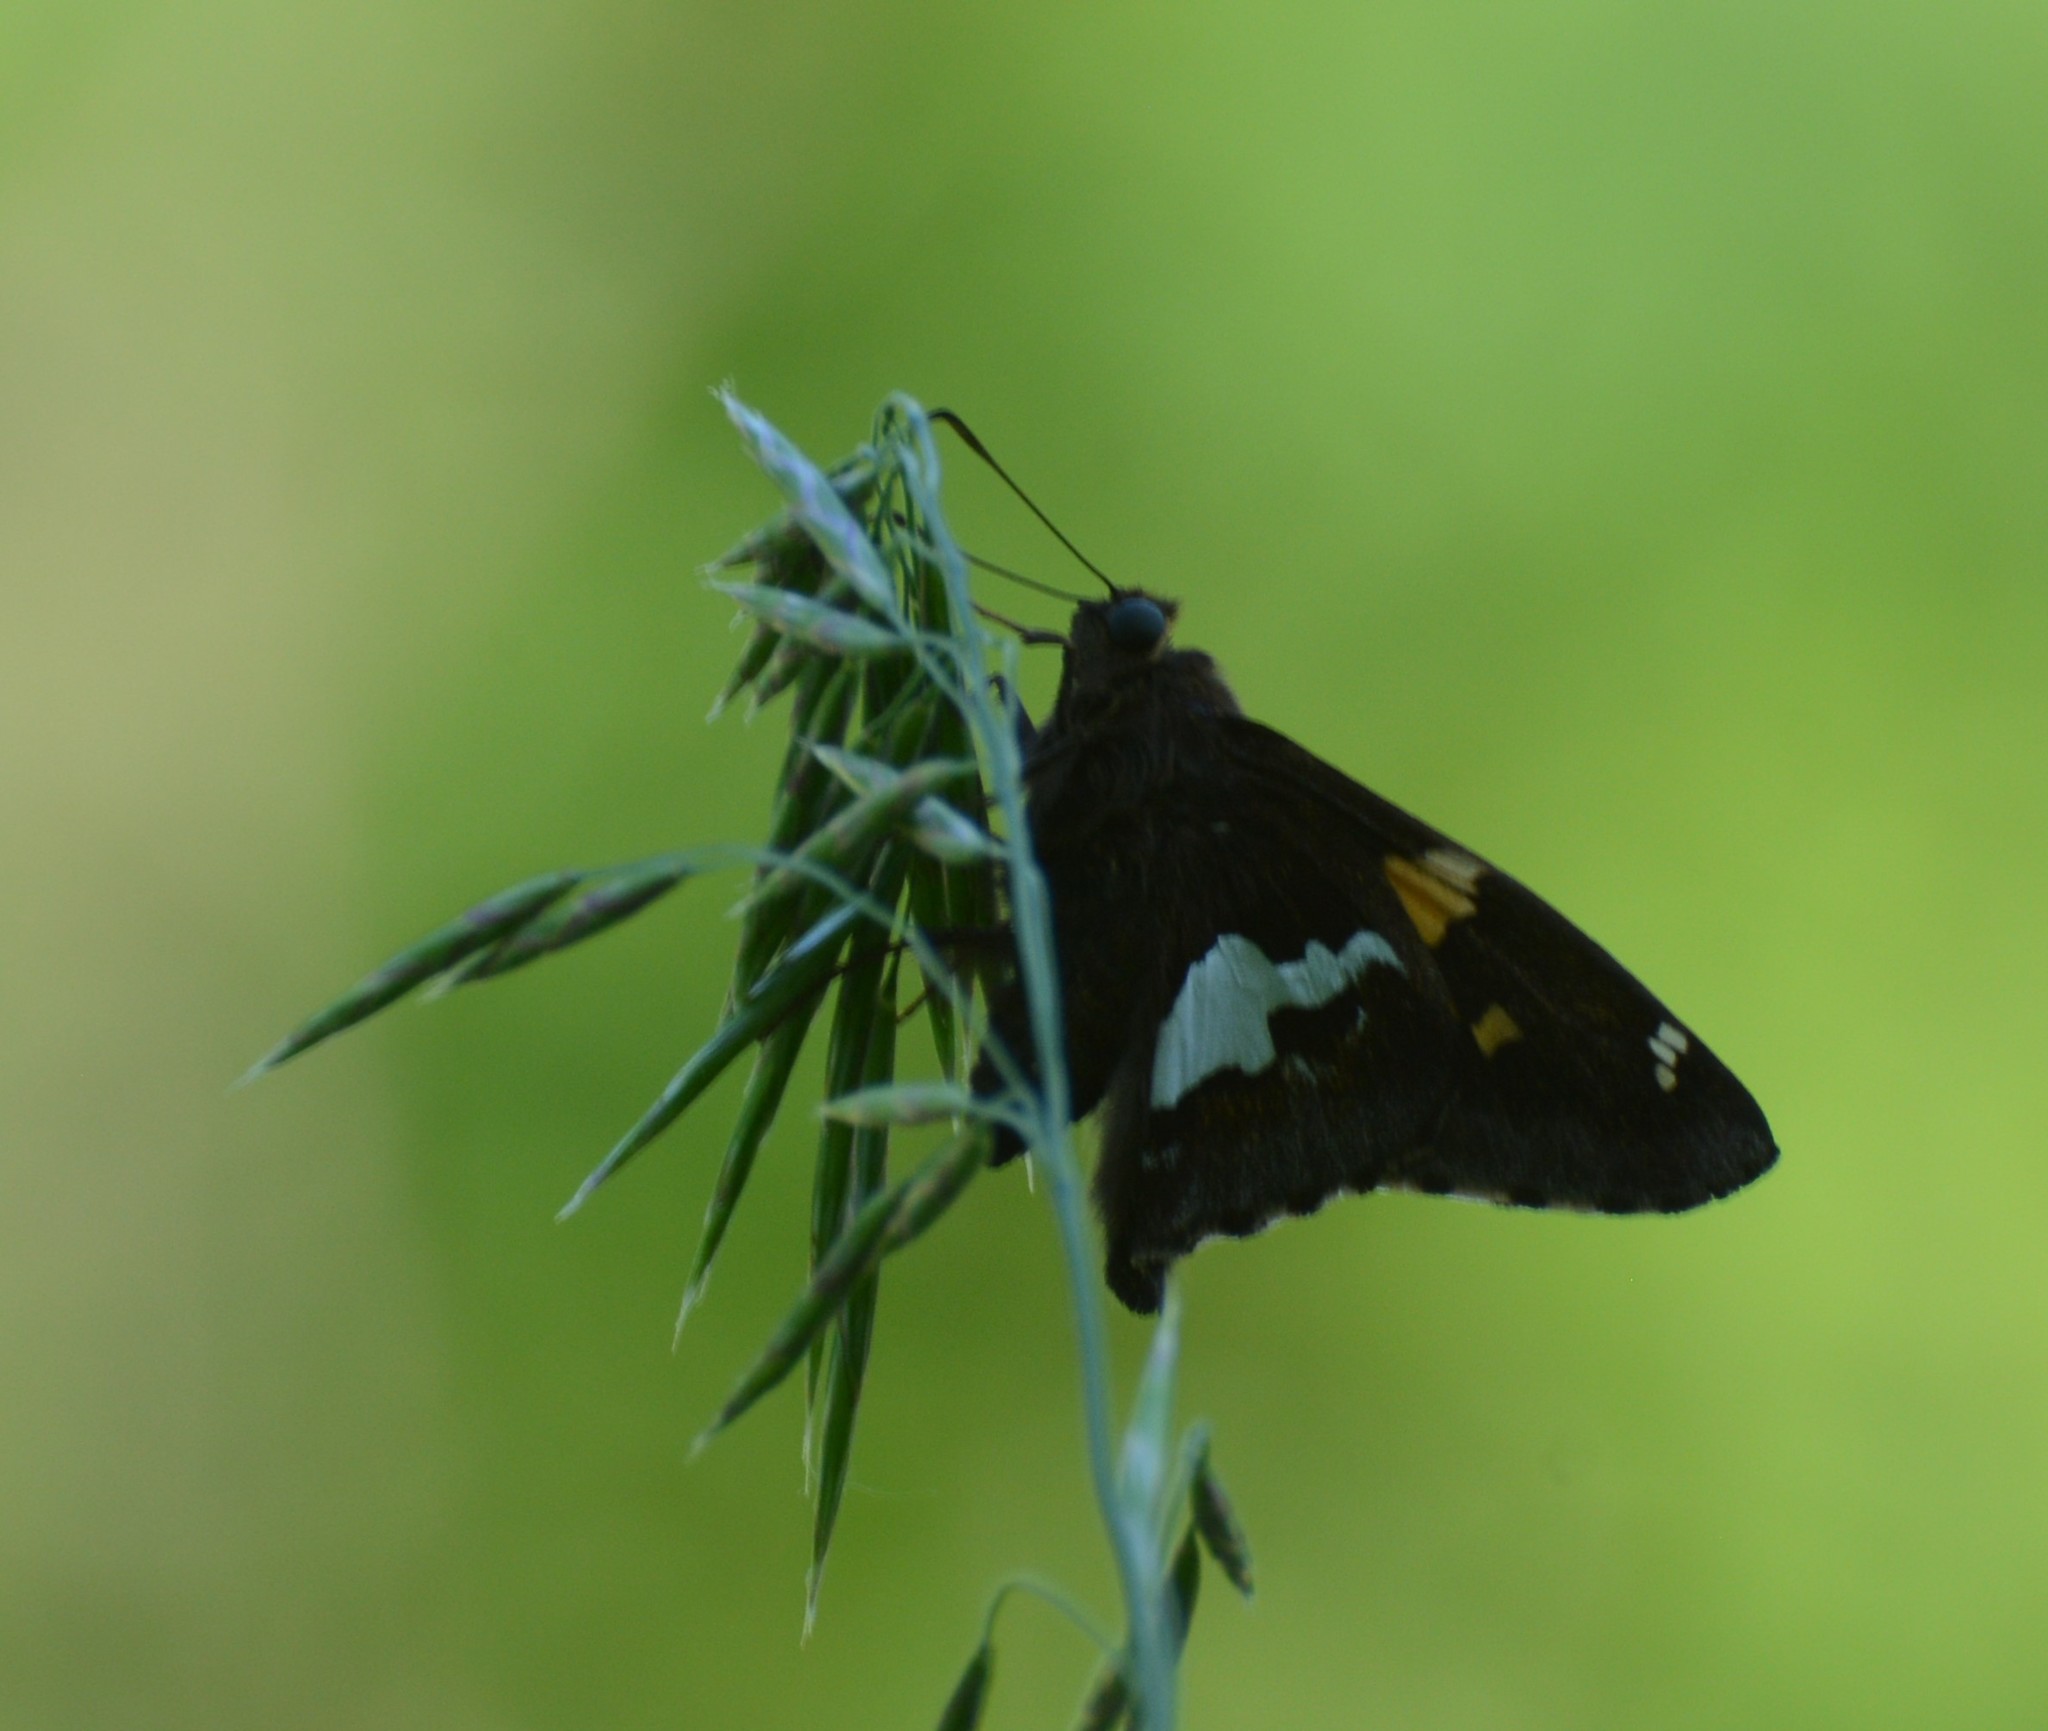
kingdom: Animalia
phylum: Arthropoda
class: Insecta
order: Lepidoptera
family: Hesperiidae
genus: Epargyreus
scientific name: Epargyreus clarus
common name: Silver-spotted skipper
